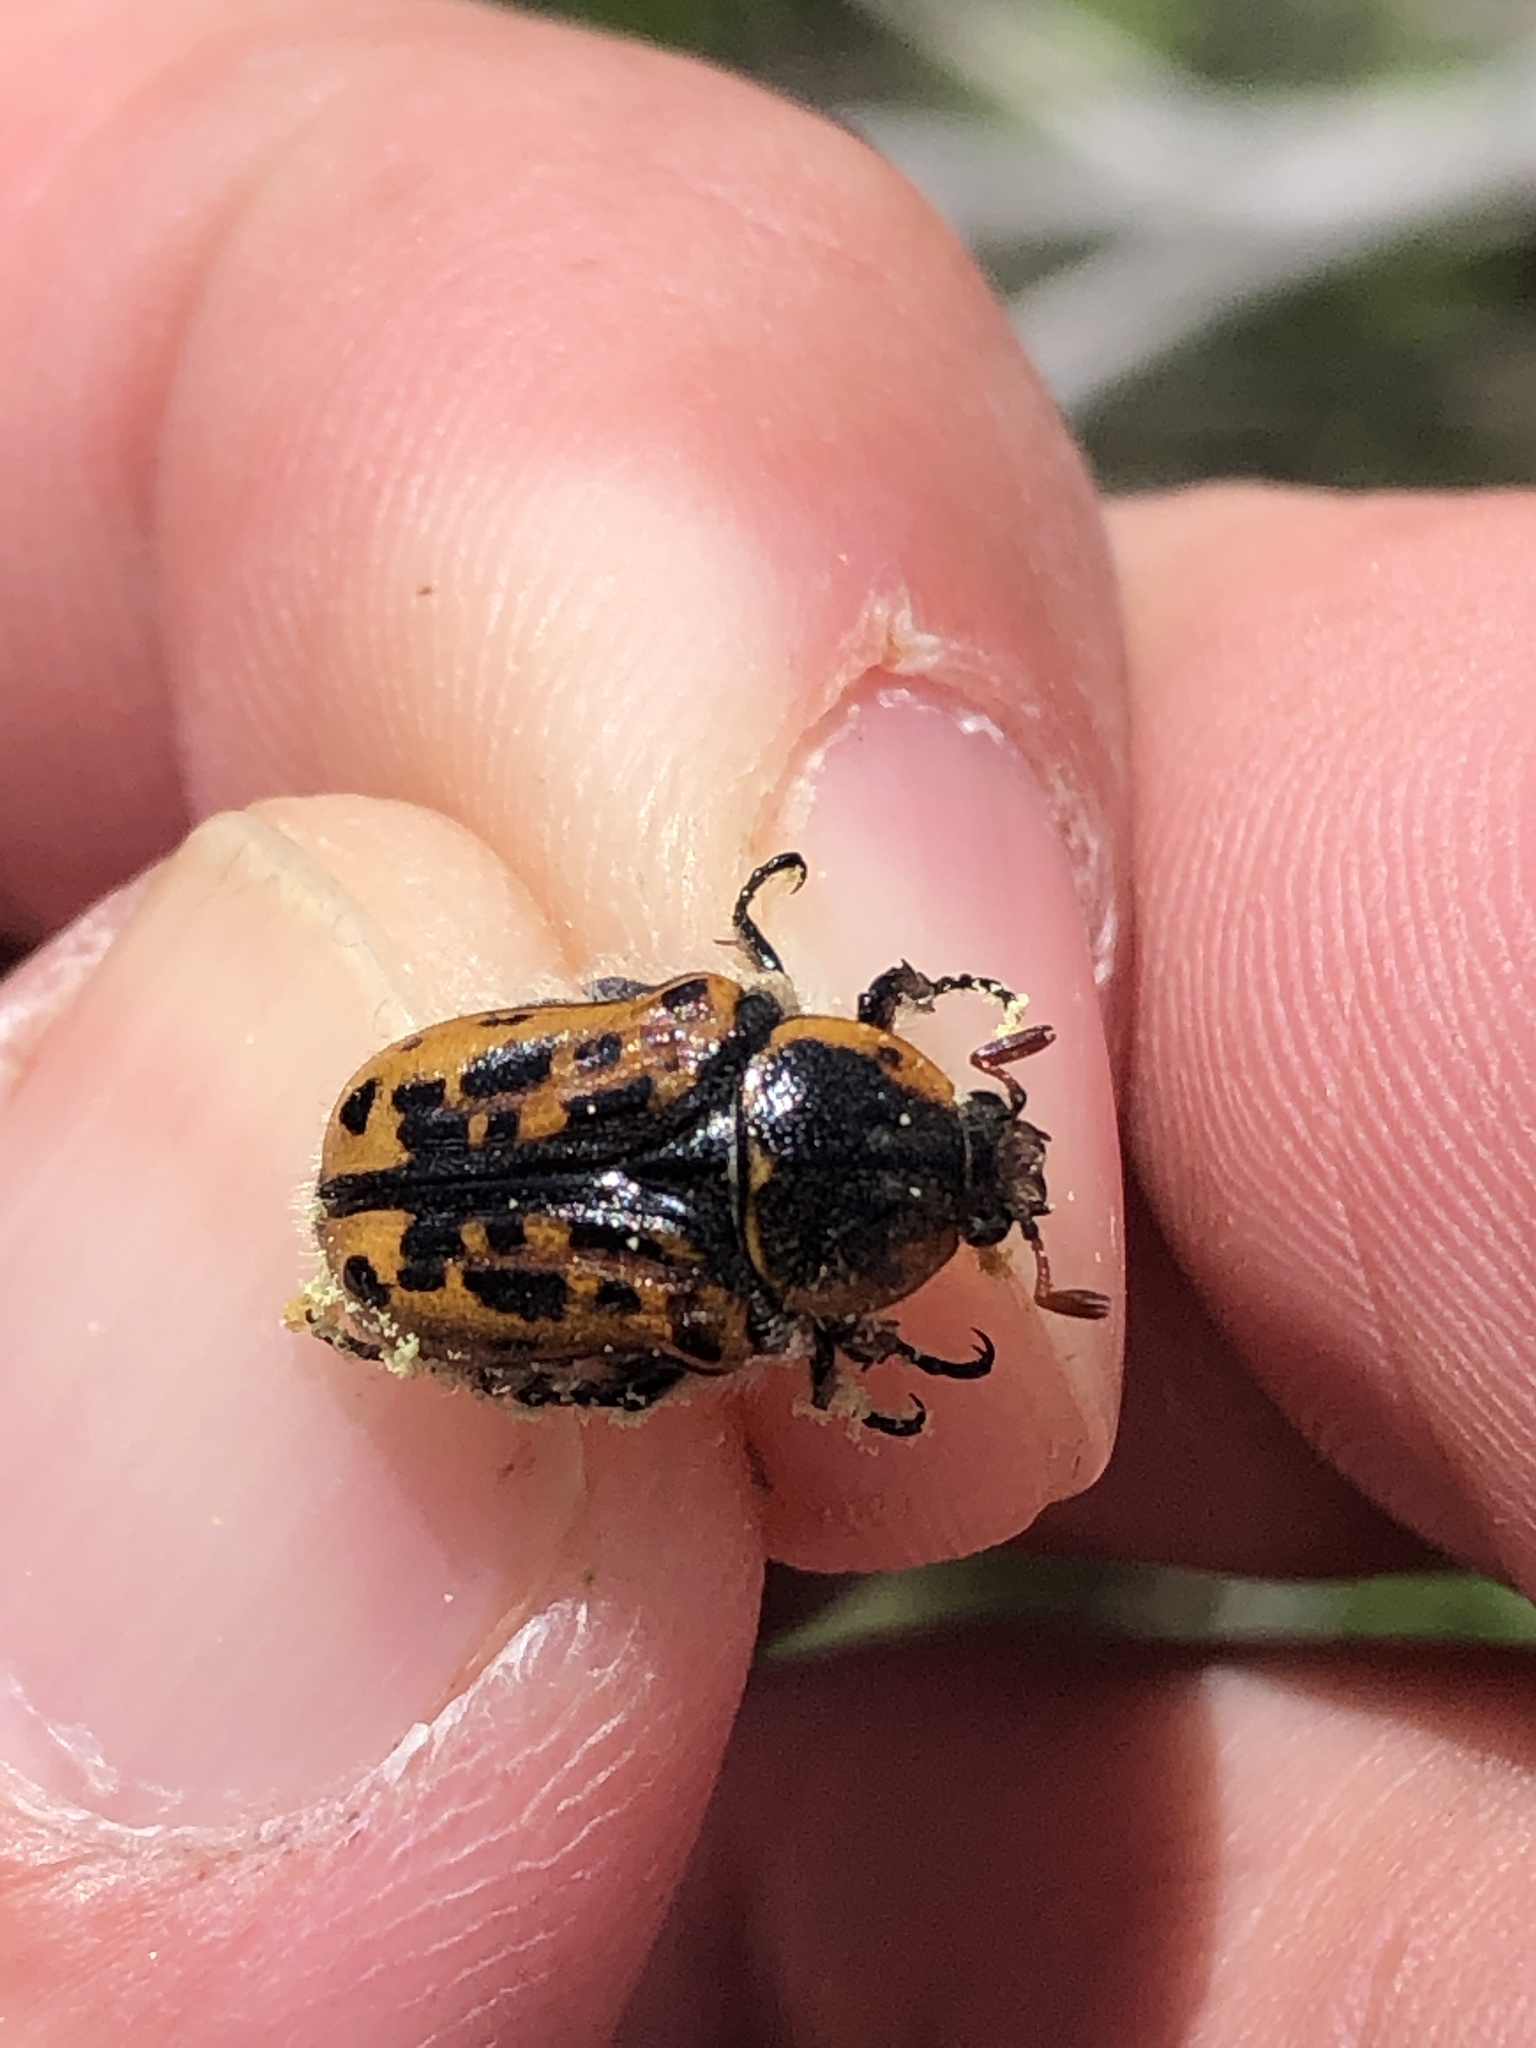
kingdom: Animalia
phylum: Arthropoda
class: Insecta
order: Coleoptera
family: Scarabaeidae
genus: Euphoria
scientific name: Euphoria kernii
